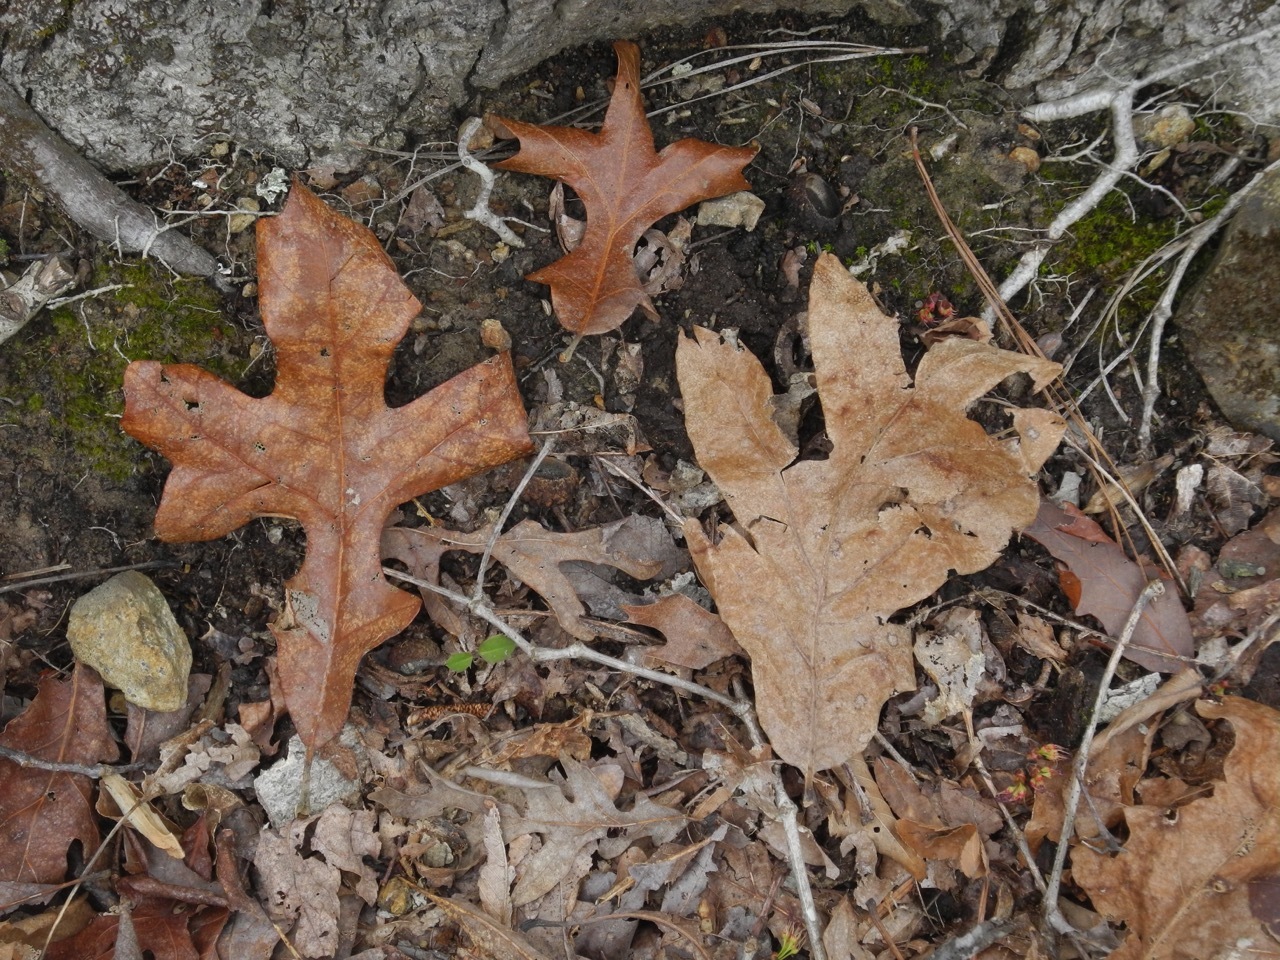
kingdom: Plantae
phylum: Tracheophyta
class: Magnoliopsida
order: Fagales
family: Fagaceae
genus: Quercus
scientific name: Quercus stellata
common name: Post oak
